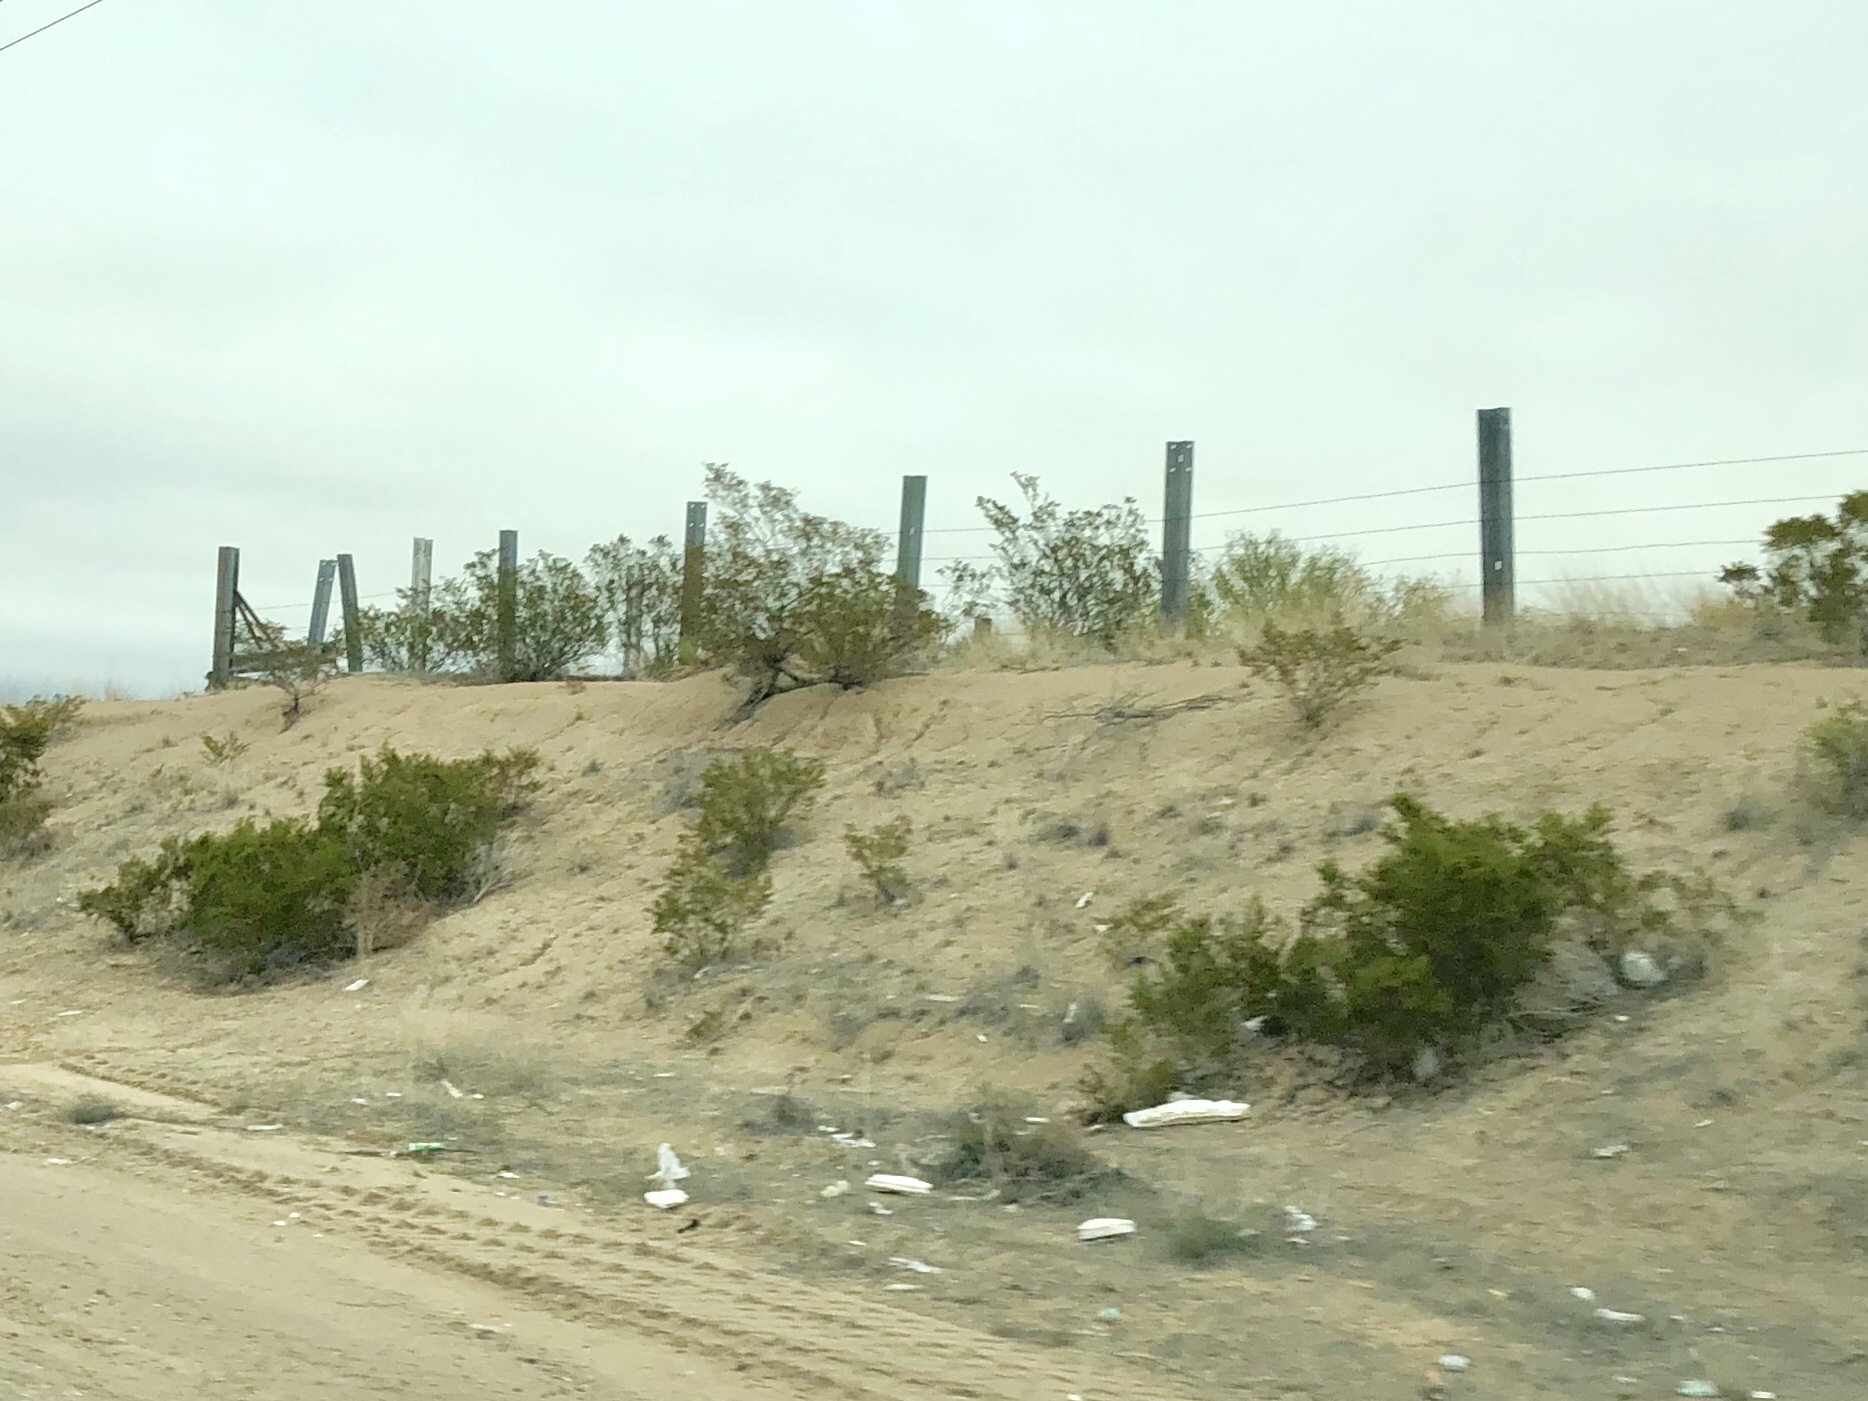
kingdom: Plantae
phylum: Tracheophyta
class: Magnoliopsida
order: Zygophyllales
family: Zygophyllaceae
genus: Larrea
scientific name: Larrea tridentata
